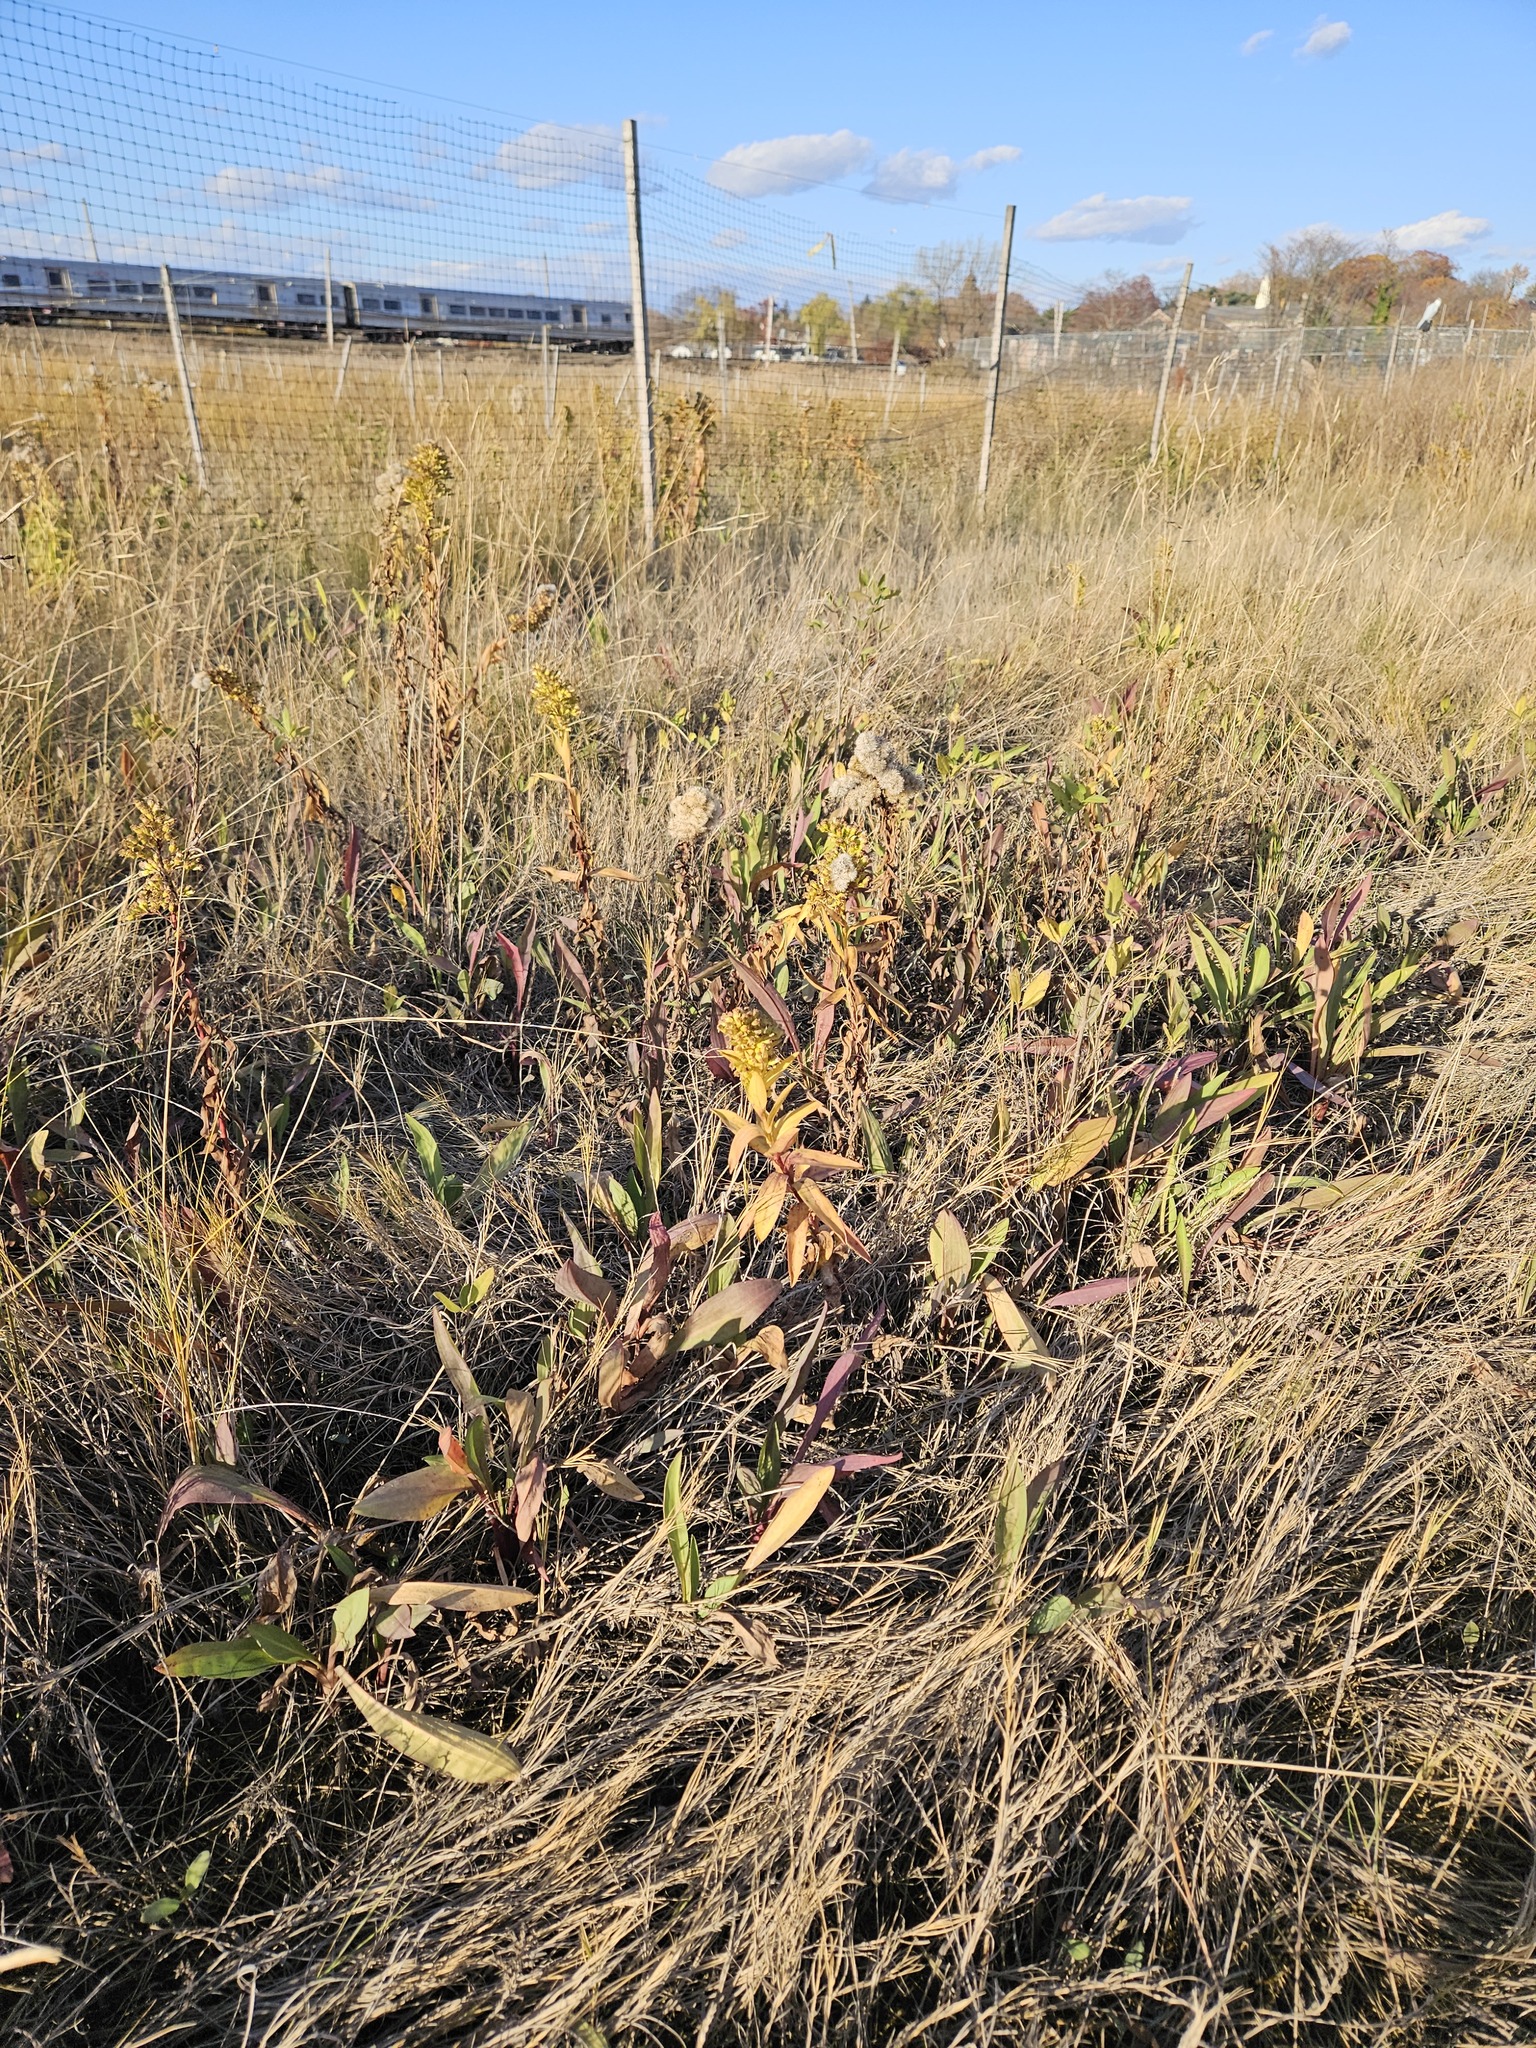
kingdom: Plantae
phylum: Tracheophyta
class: Magnoliopsida
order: Asterales
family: Asteraceae
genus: Solidago
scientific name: Solidago sempervirens
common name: Salt-marsh goldenrod
